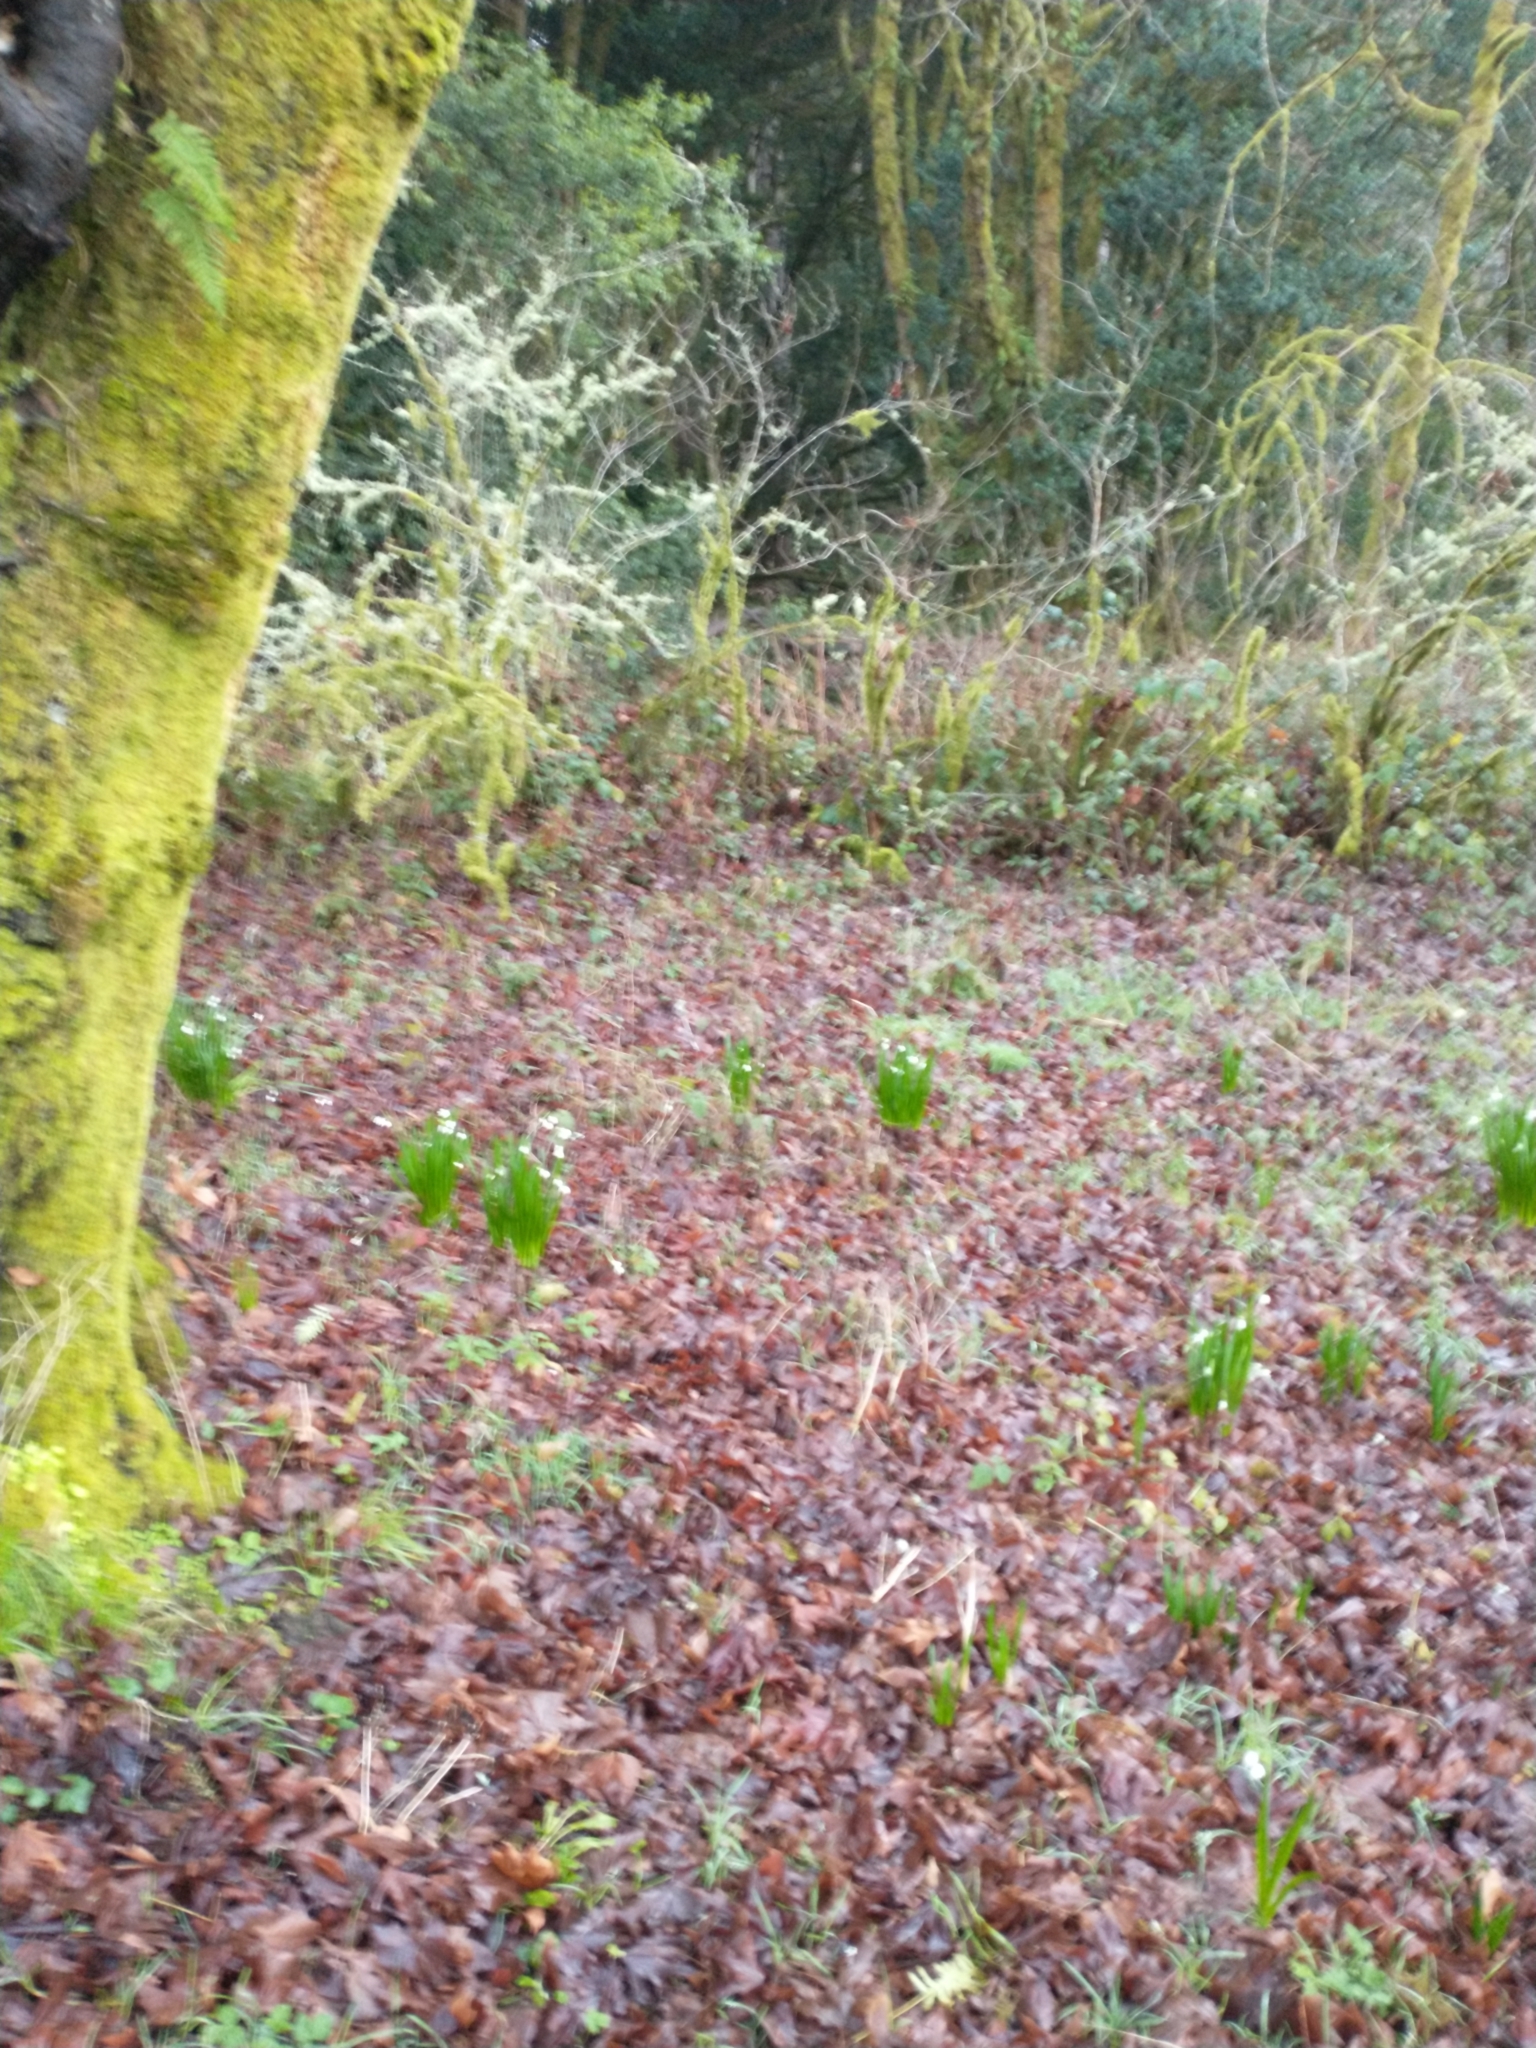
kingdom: Plantae
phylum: Tracheophyta
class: Liliopsida
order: Asparagales
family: Amaryllidaceae
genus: Leucojum
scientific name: Leucojum aestivum
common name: Summer snowflake
